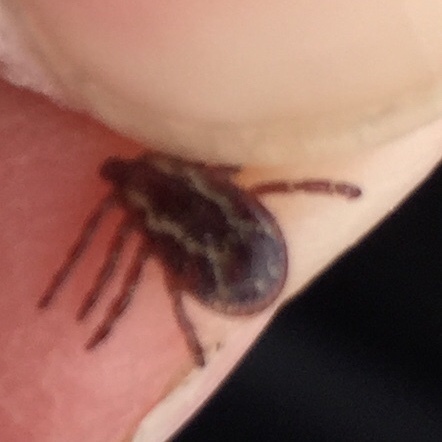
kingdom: Animalia
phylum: Arthropoda
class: Arachnida
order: Ixodida
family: Ixodidae
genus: Dermacentor
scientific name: Dermacentor variabilis
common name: American dog tick
